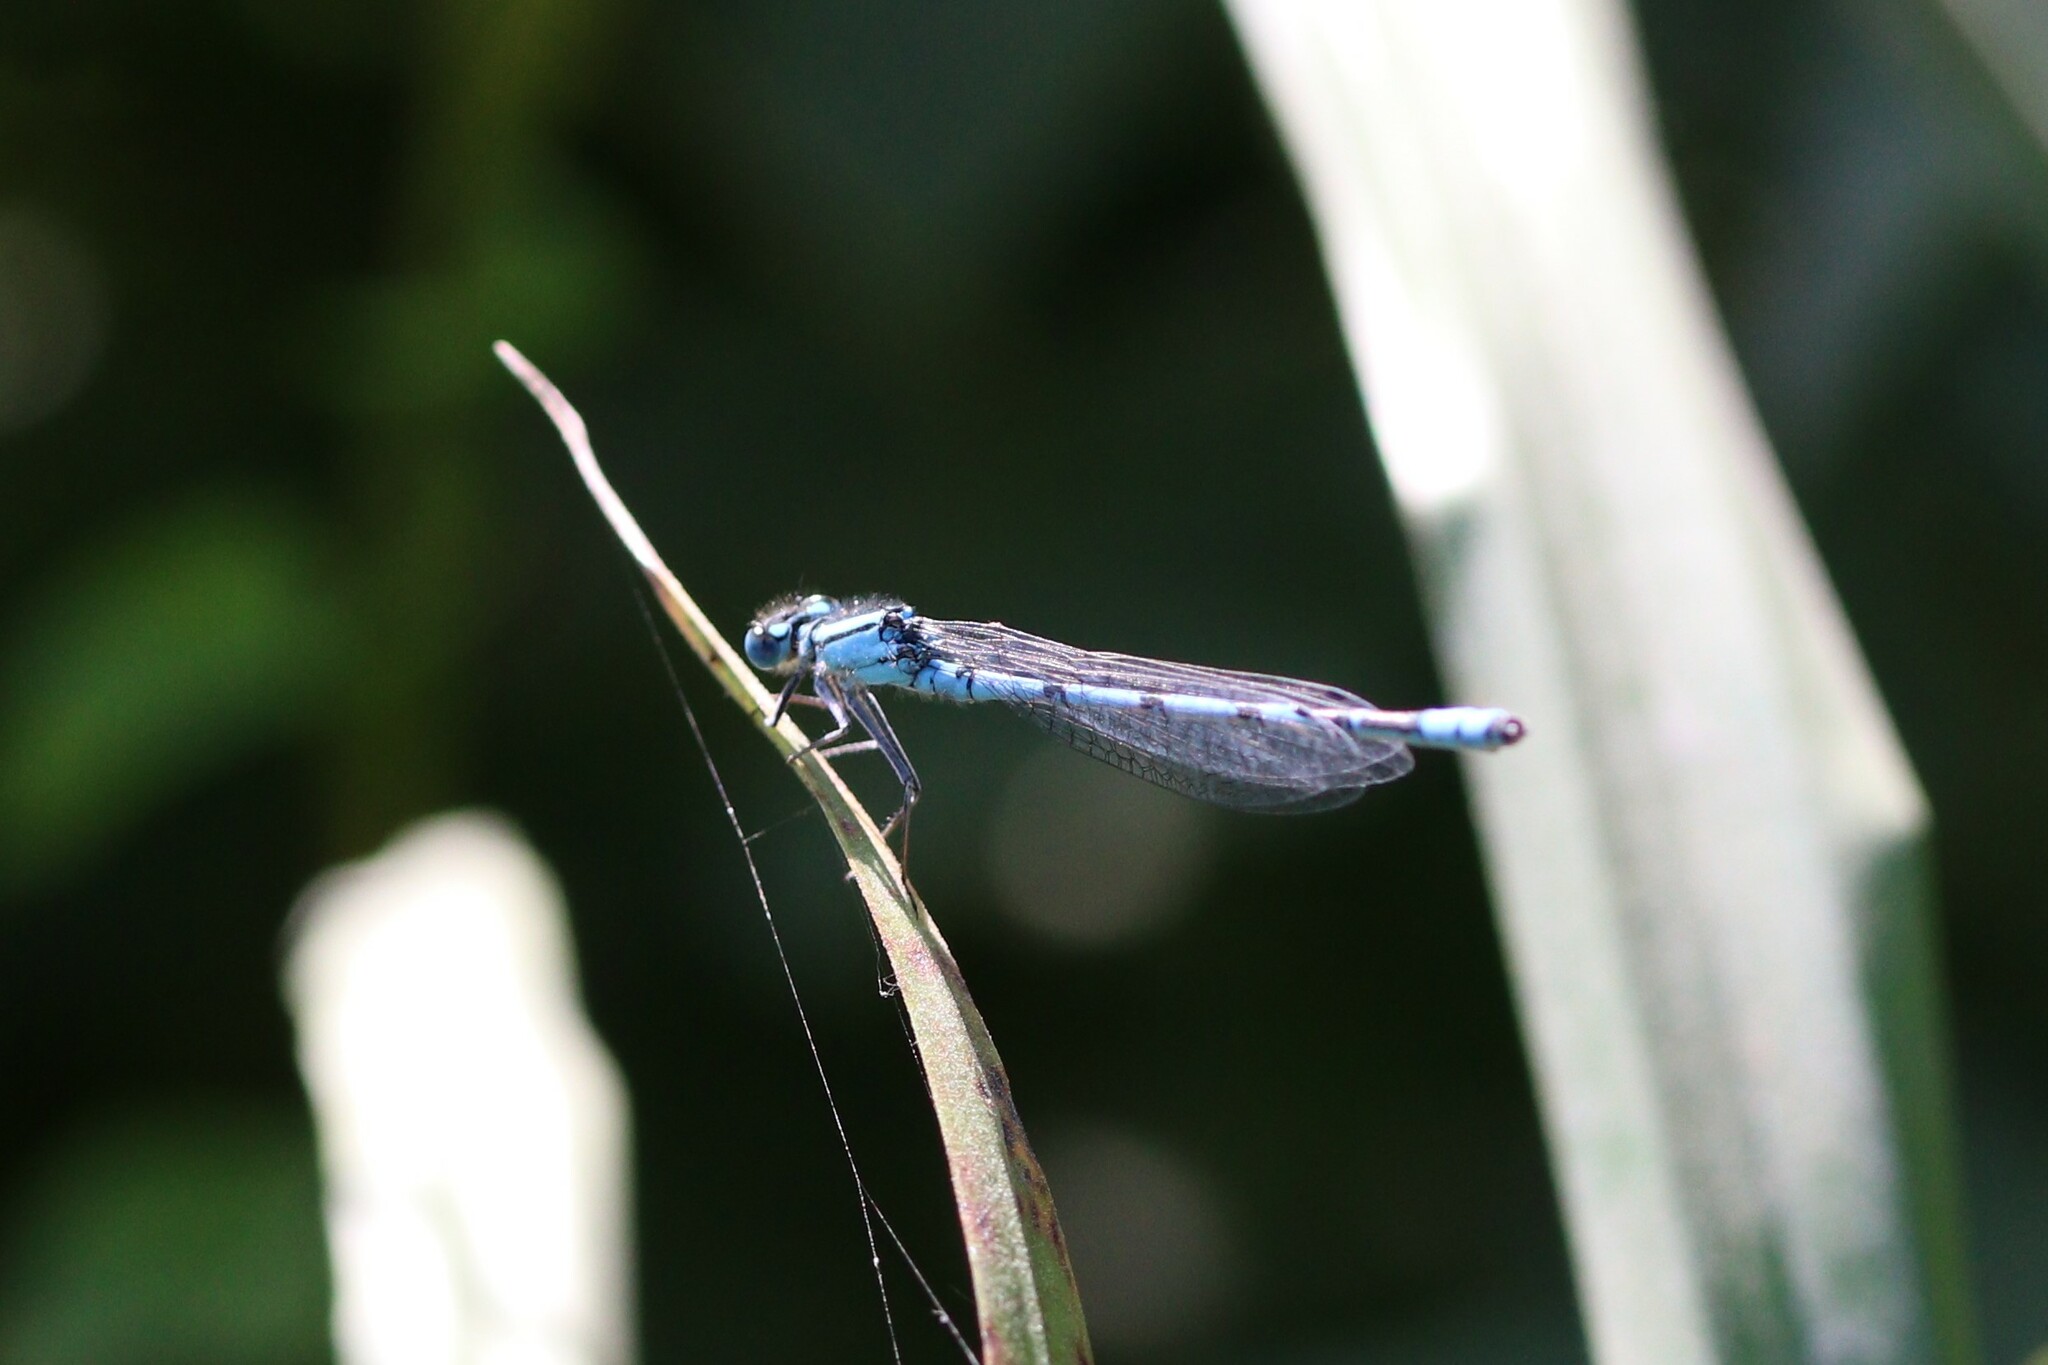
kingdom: Animalia
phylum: Arthropoda
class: Insecta
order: Odonata
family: Coenagrionidae
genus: Enallagma
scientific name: Enallagma cyathigerum
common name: Common blue damselfly
